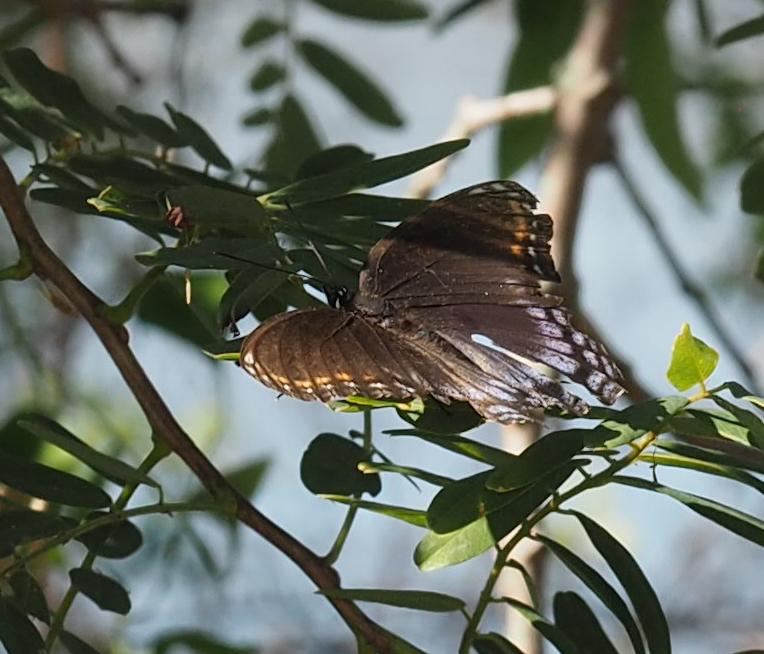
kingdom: Animalia
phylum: Arthropoda
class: Insecta
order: Lepidoptera
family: Nymphalidae
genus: Limenitis
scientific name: Limenitis astyanax
